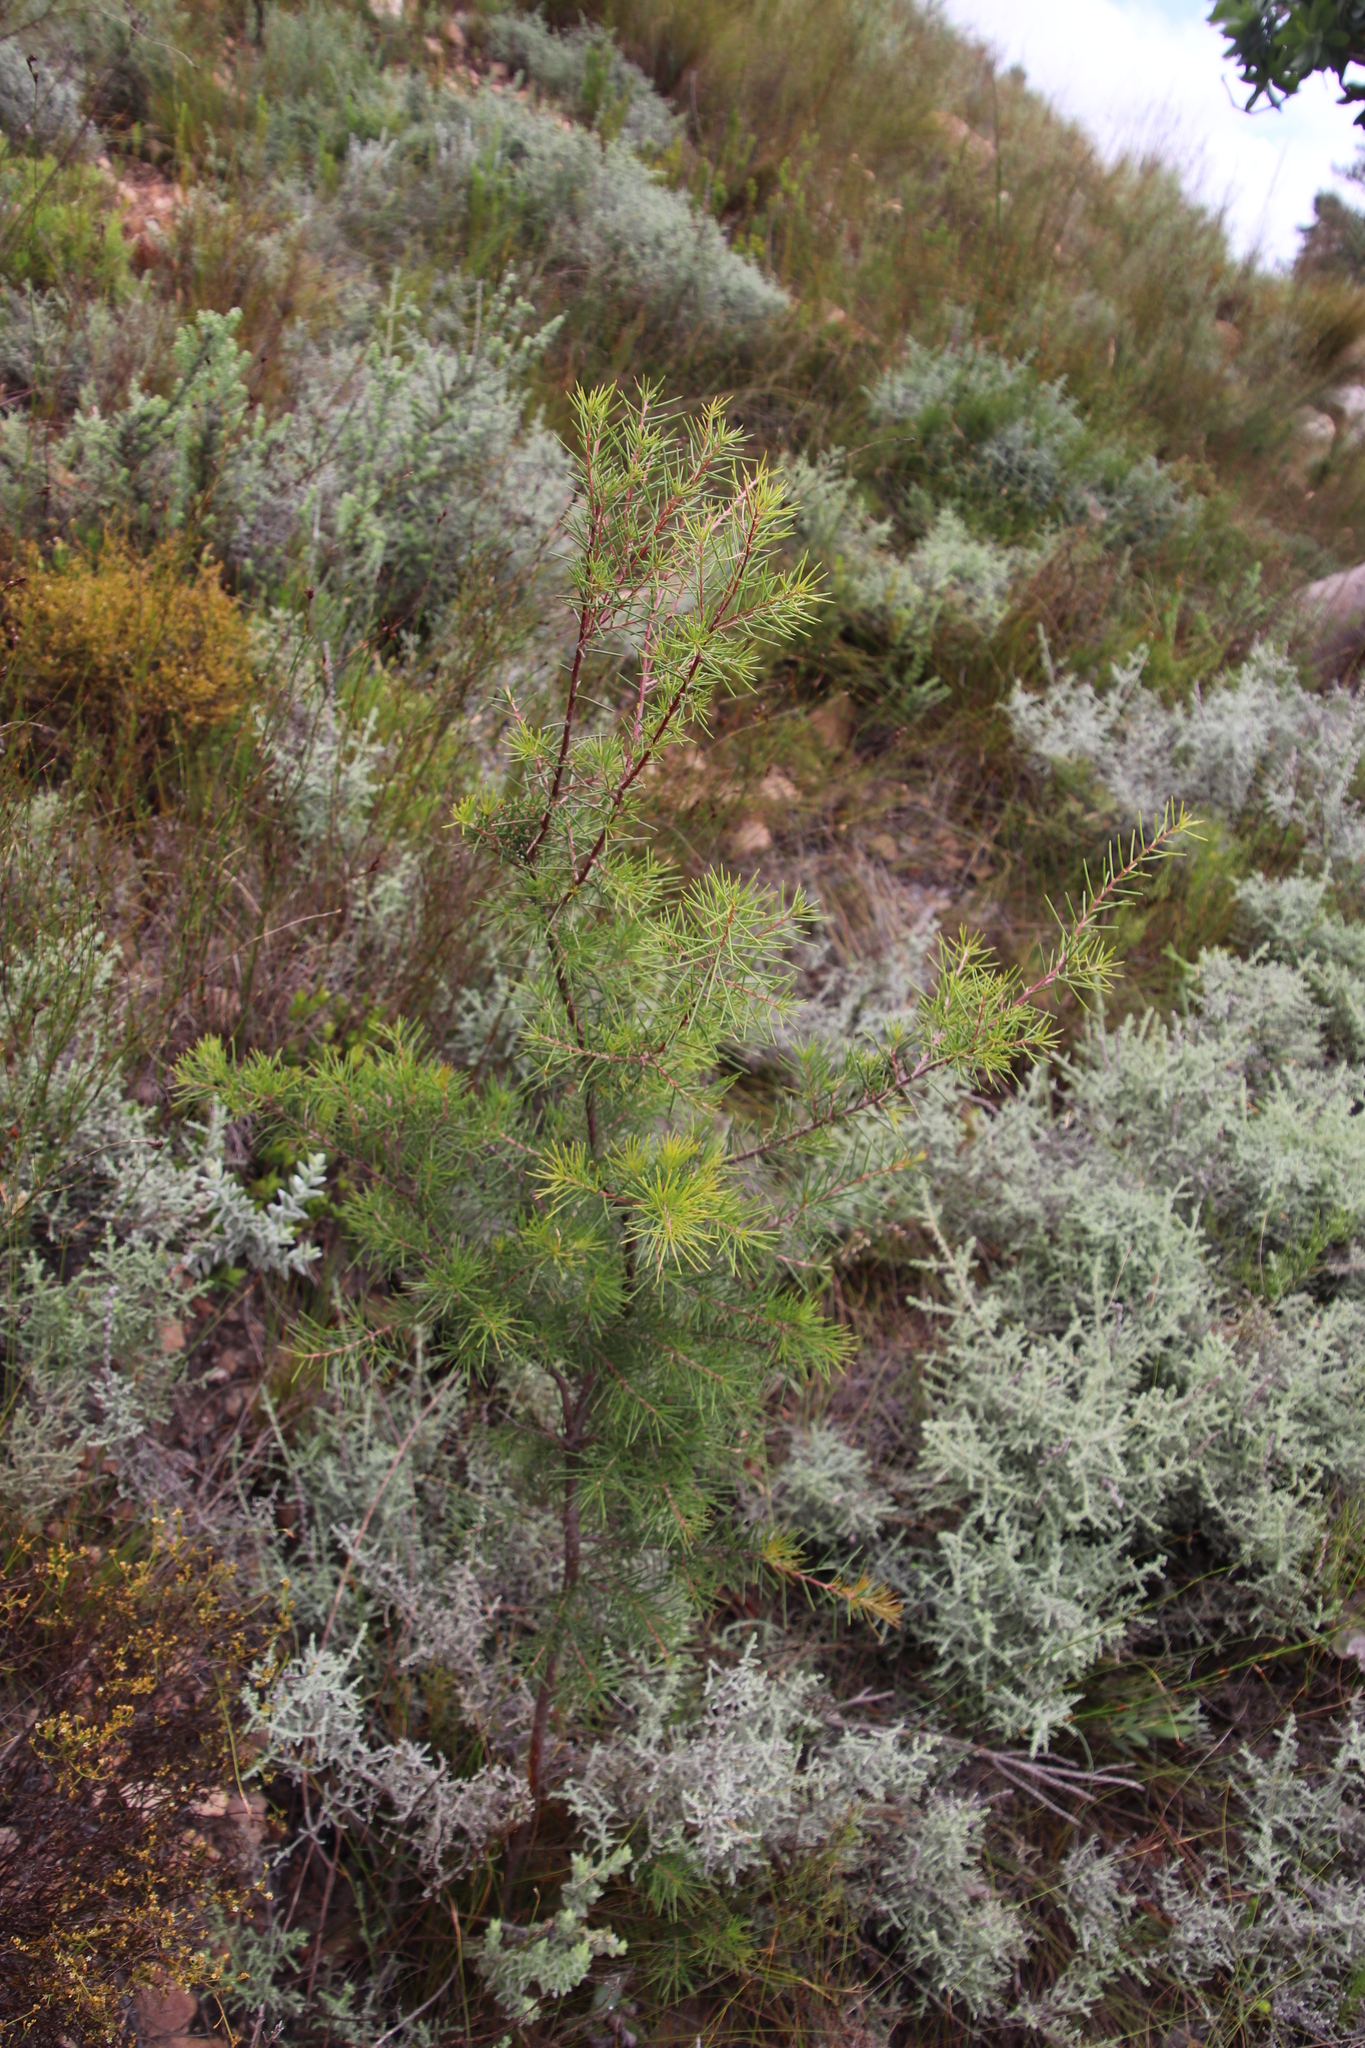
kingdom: Plantae
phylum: Tracheophyta
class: Magnoliopsida
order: Proteales
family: Proteaceae
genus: Hakea
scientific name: Hakea sericea
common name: Needle bush
